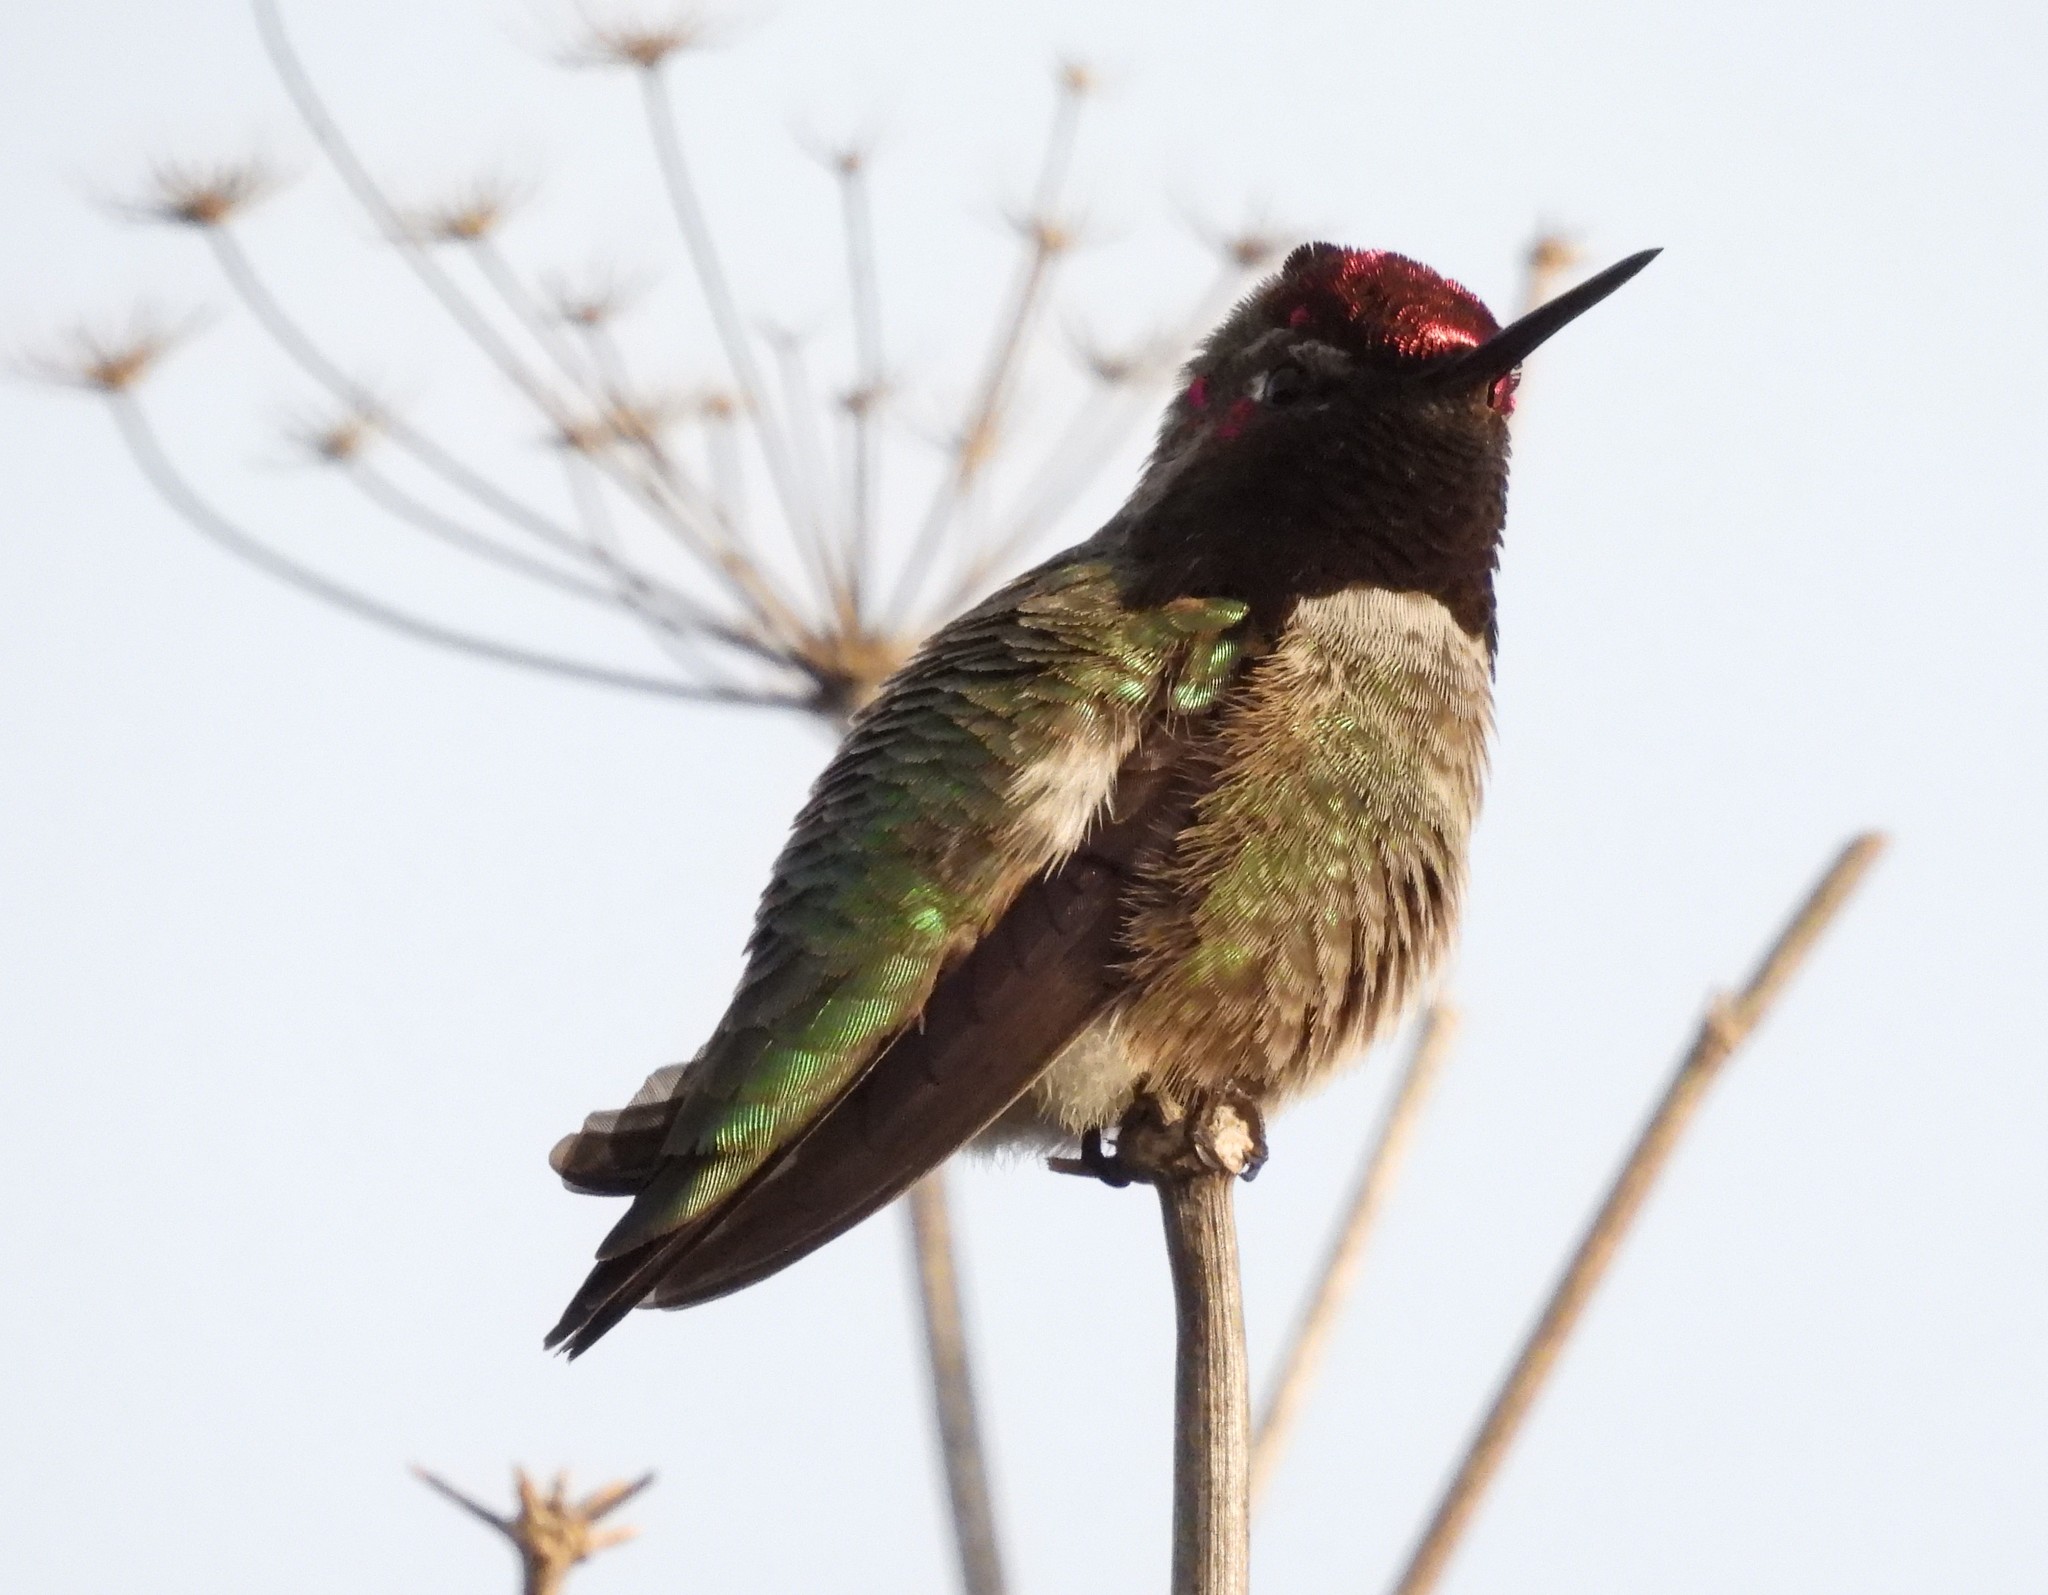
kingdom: Animalia
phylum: Chordata
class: Aves
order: Apodiformes
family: Trochilidae
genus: Calypte
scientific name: Calypte anna
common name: Anna's hummingbird
